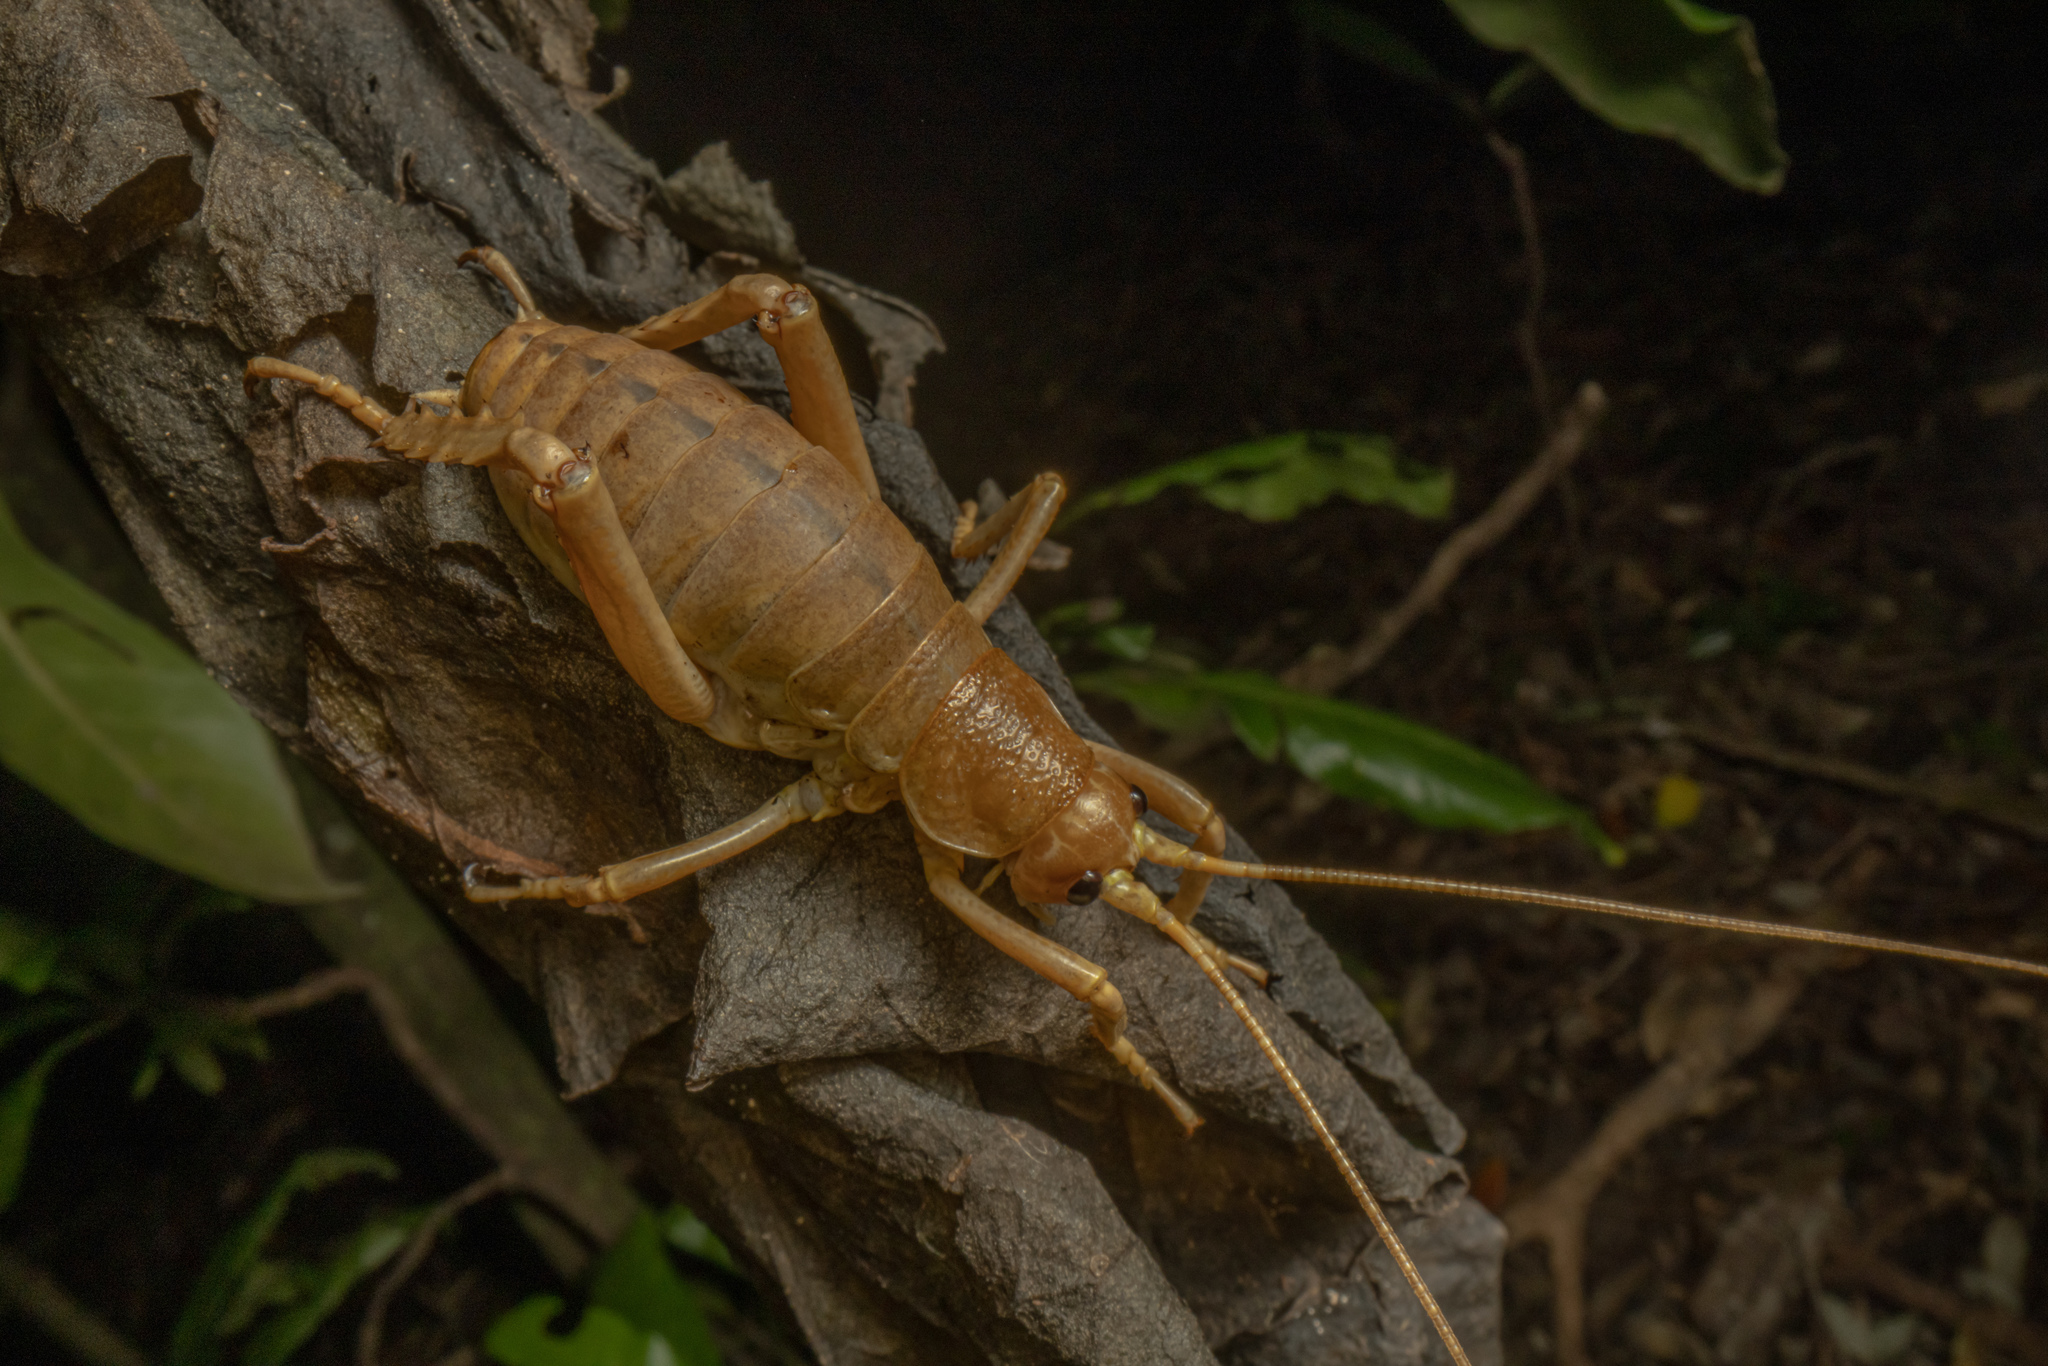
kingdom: Animalia
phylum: Arthropoda
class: Insecta
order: Orthoptera
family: Anostostomatidae
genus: Deinacrida
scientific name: Deinacrida fallai
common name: Poor knights weta
